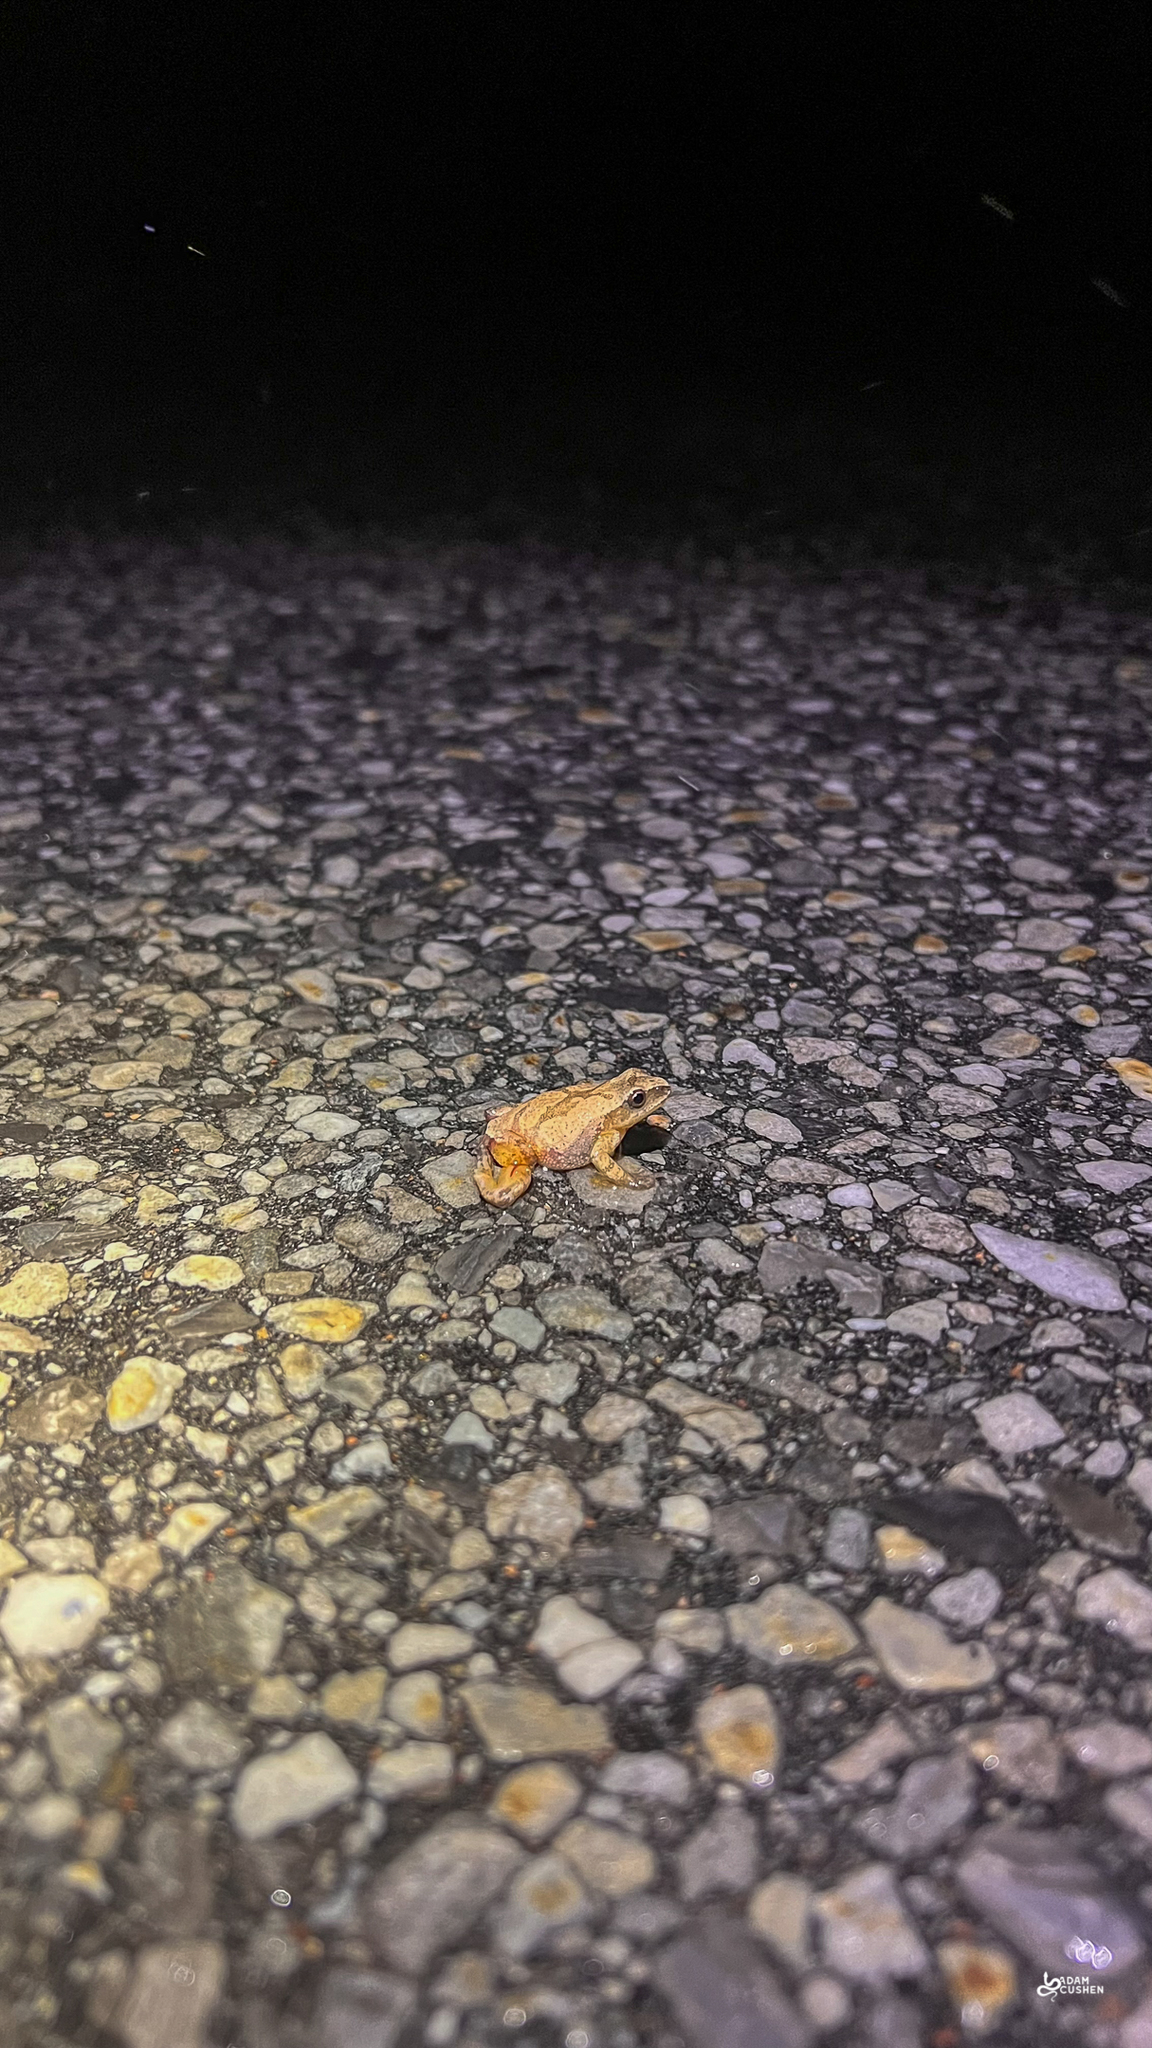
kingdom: Animalia
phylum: Chordata
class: Amphibia
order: Anura
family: Hylidae
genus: Pseudacris
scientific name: Pseudacris crucifer
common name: Spring peeper
